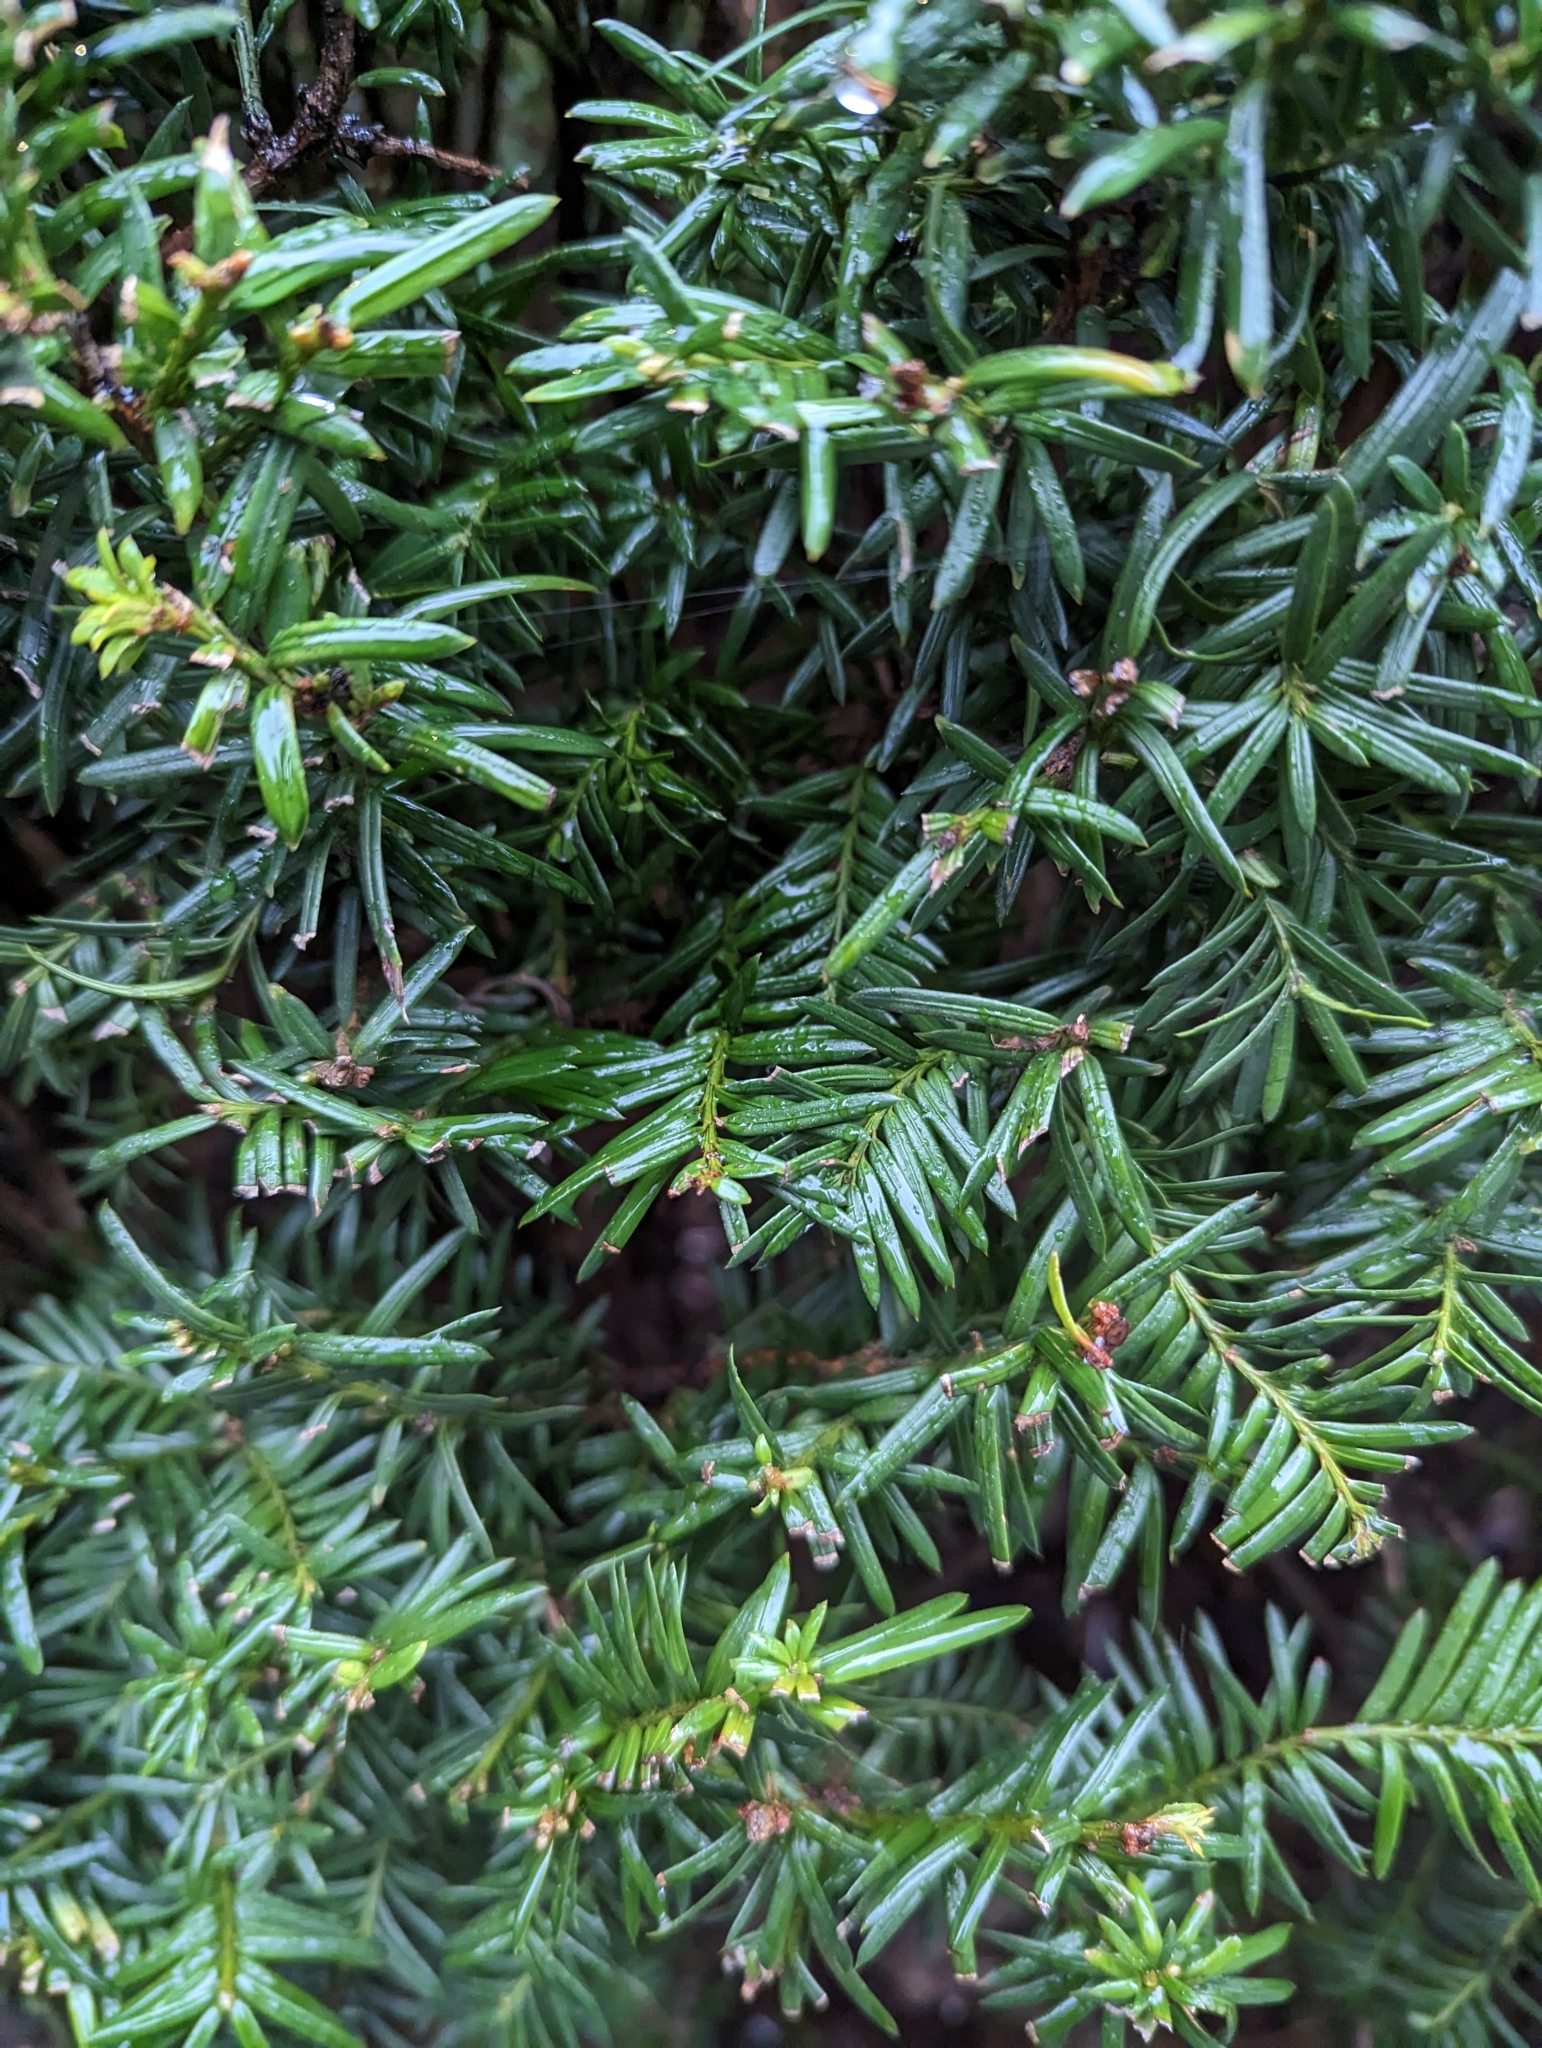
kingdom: Plantae
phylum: Tracheophyta
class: Pinopsida
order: Pinales
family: Taxaceae
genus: Taxus
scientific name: Taxus brevifolia
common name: Pacific yew
